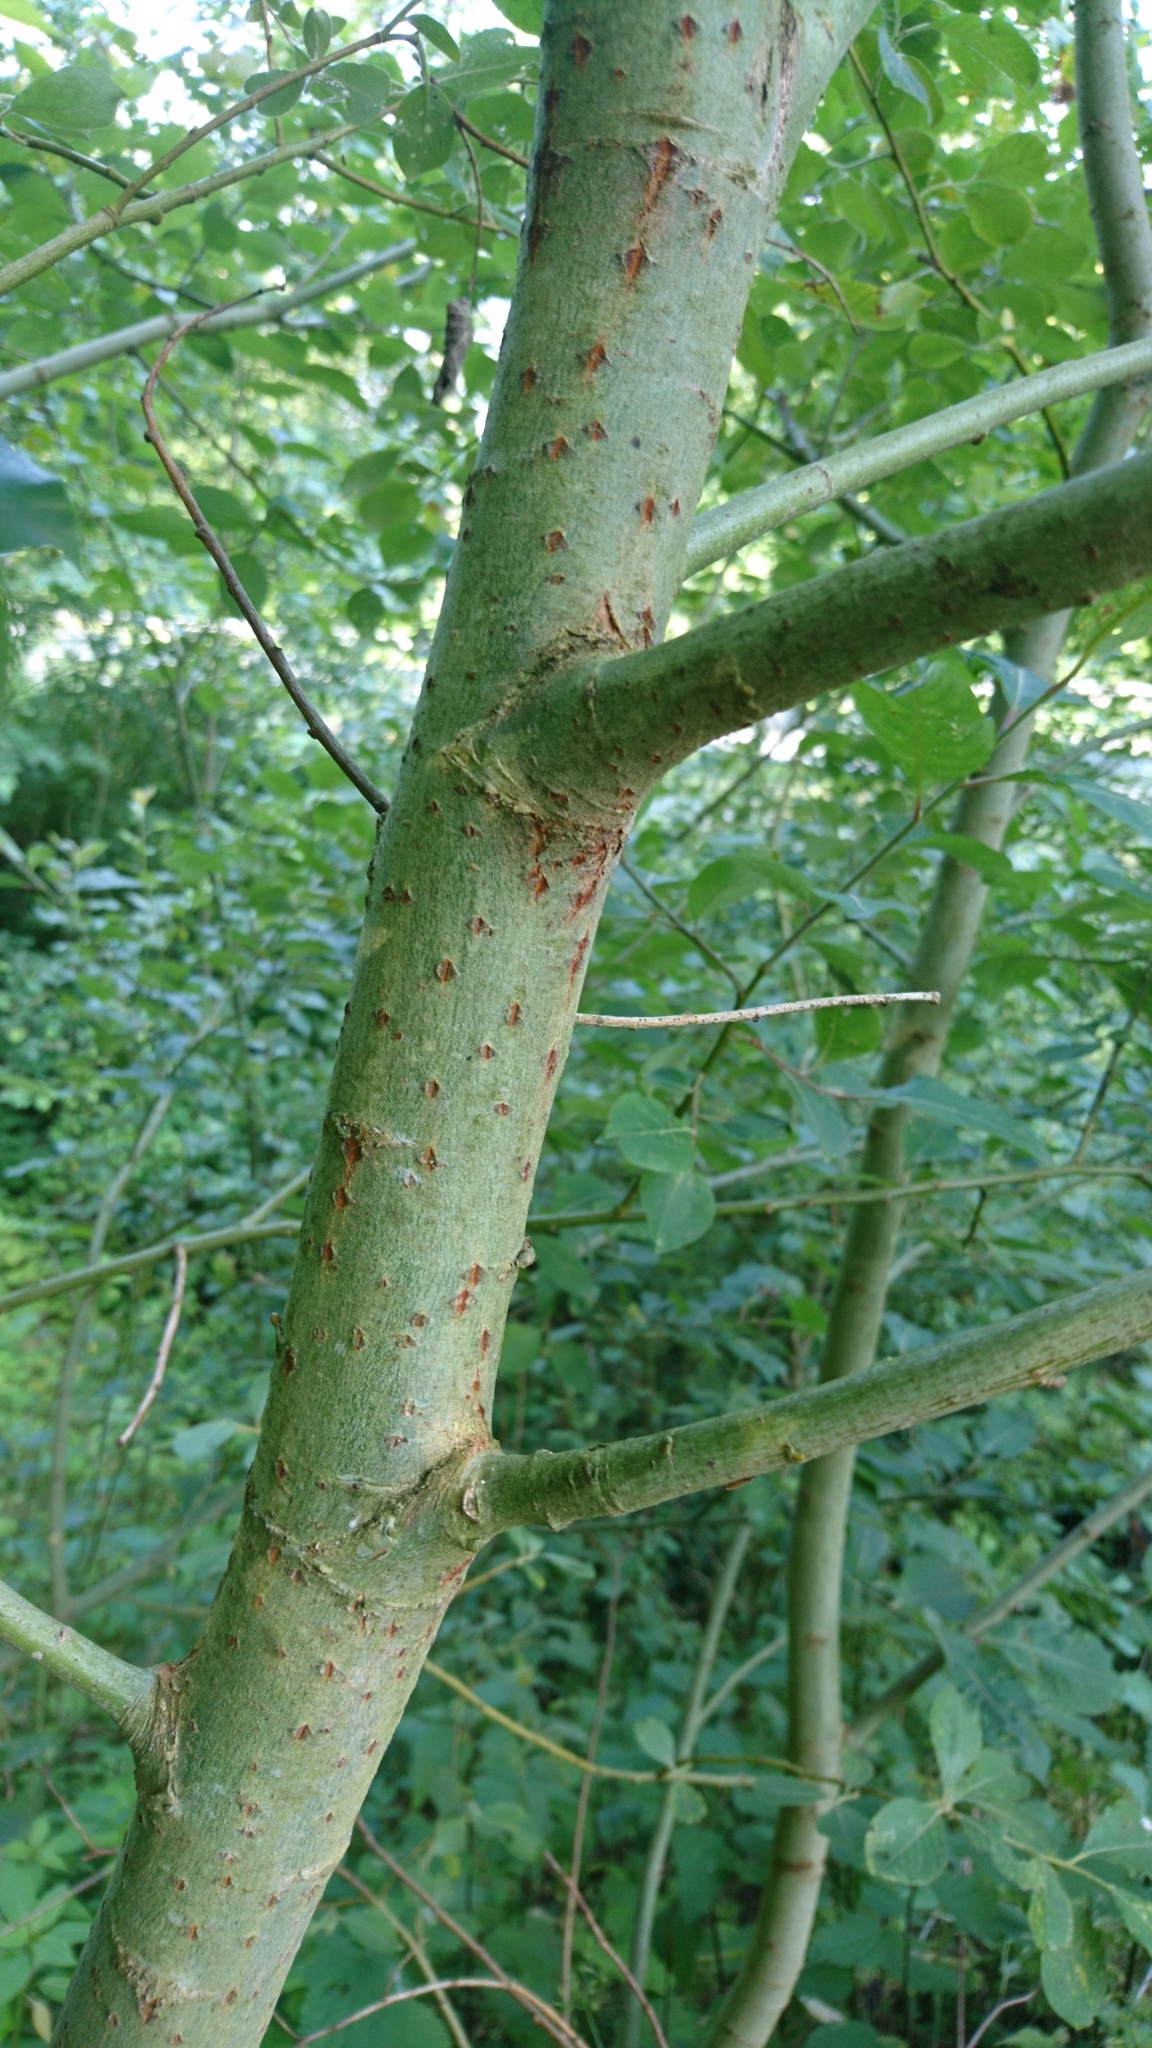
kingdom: Plantae
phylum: Tracheophyta
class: Magnoliopsida
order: Malpighiales
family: Salicaceae
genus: Salix
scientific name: Salix caprea
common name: Goat willow
